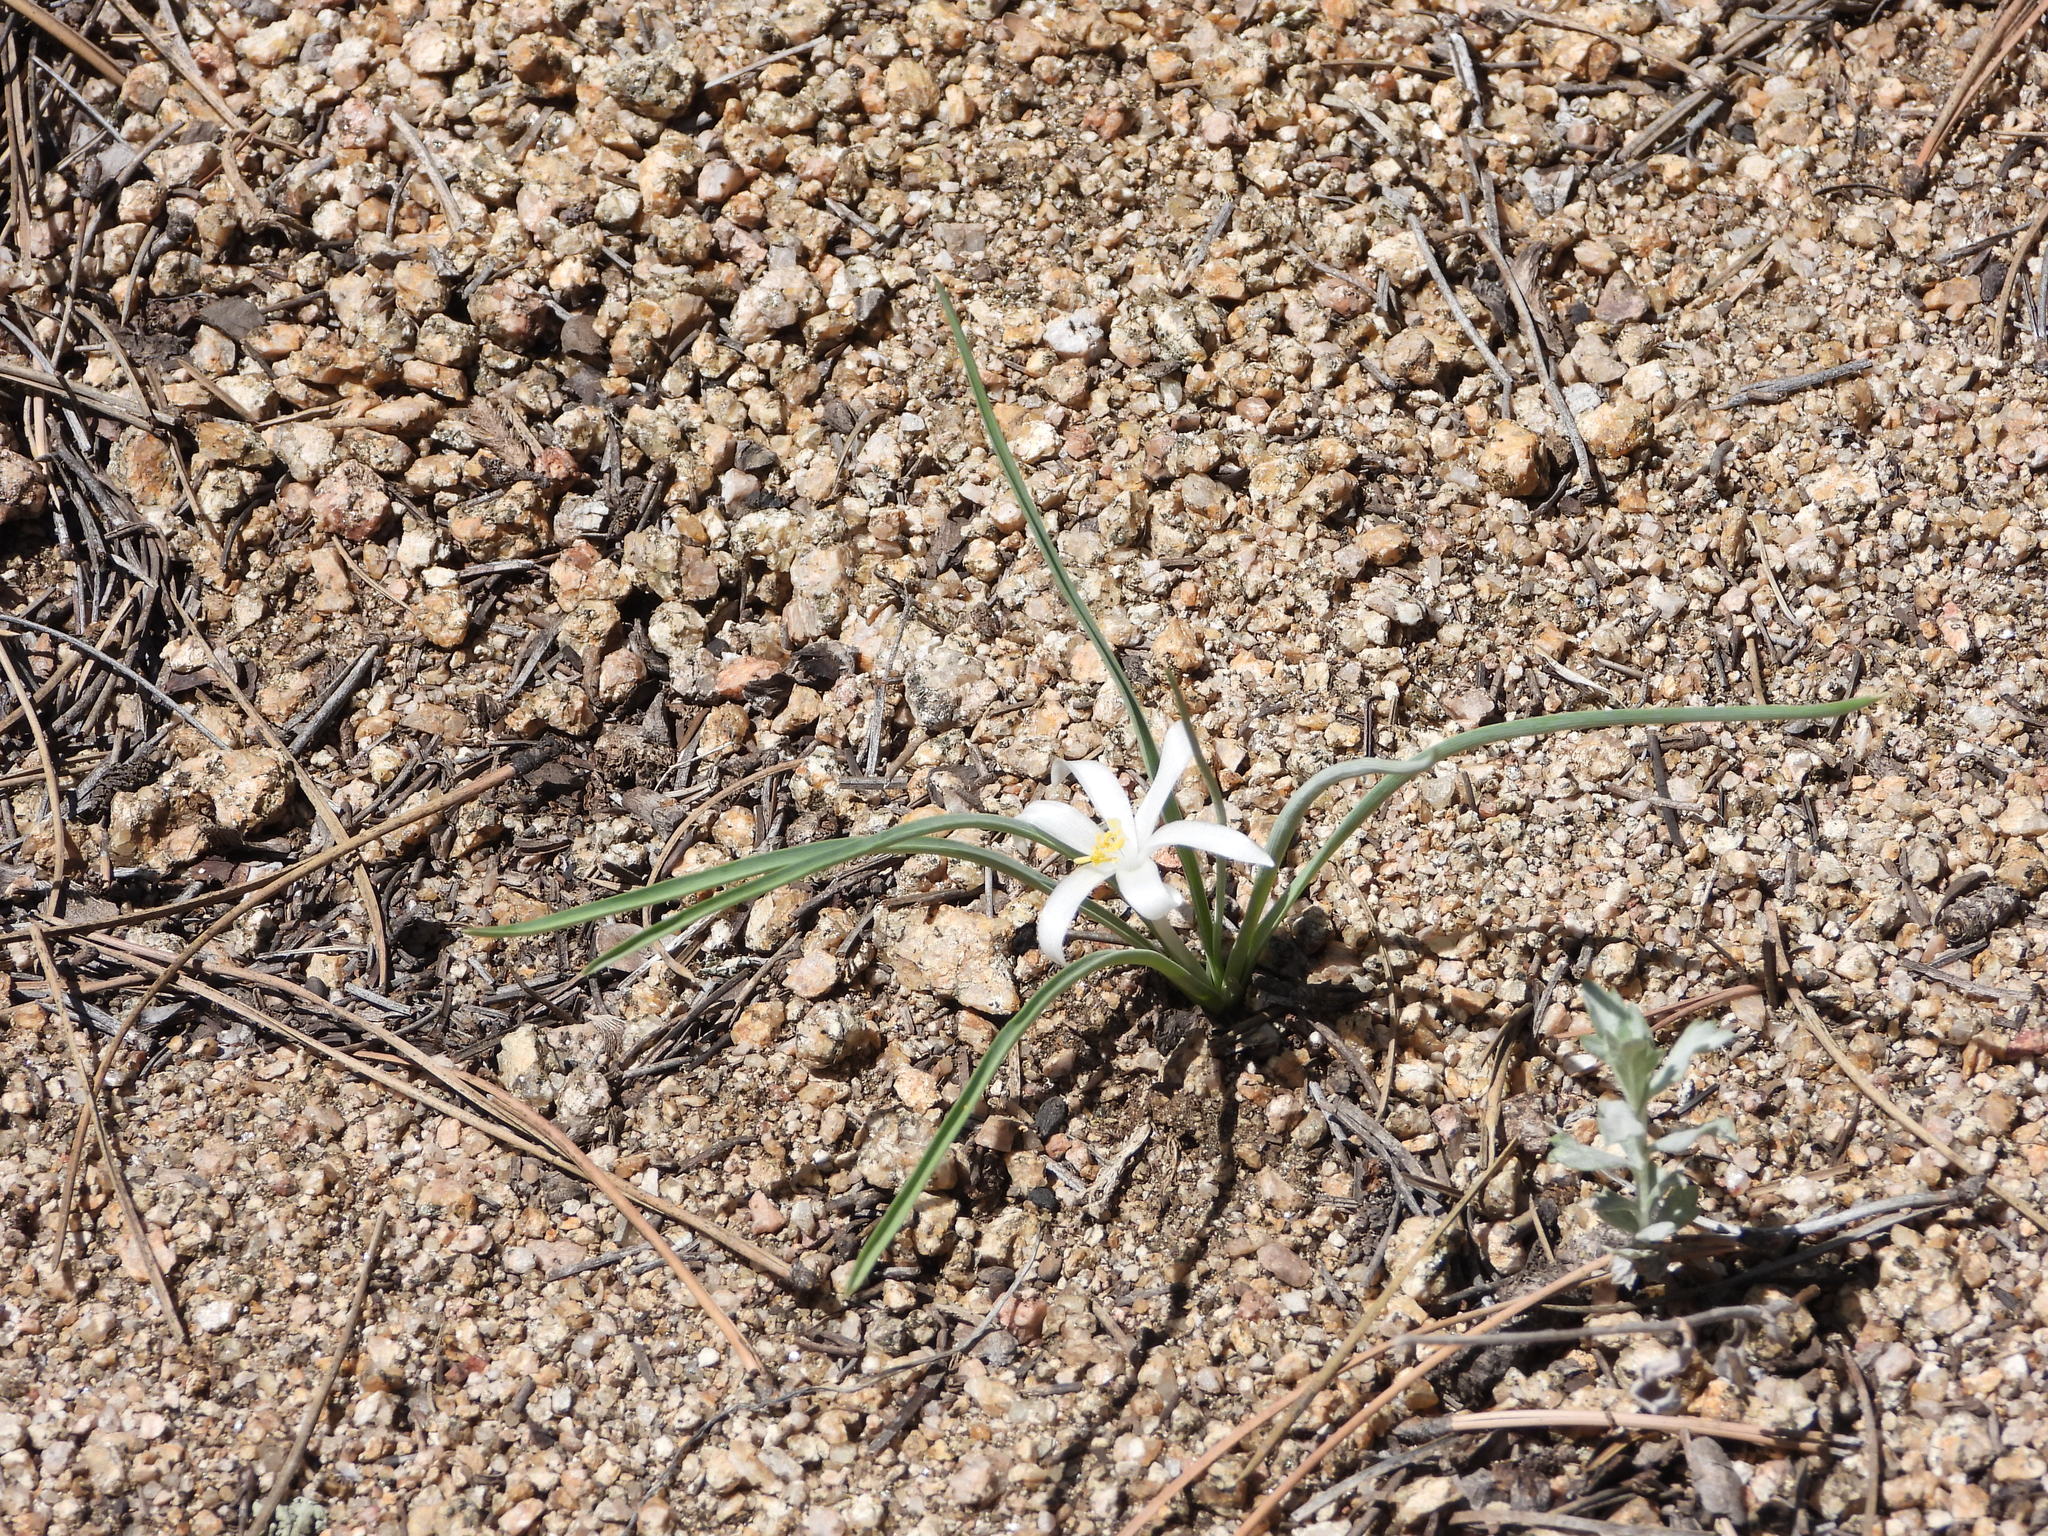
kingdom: Plantae
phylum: Tracheophyta
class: Liliopsida
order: Asparagales
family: Asparagaceae
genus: Leucocrinum
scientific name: Leucocrinum montanum
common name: Mountain-lily
